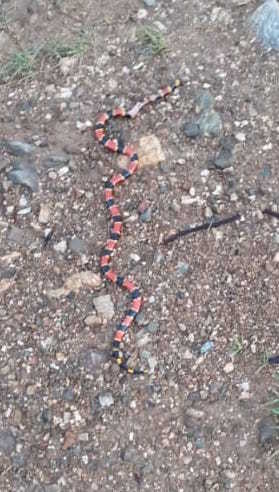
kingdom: Animalia
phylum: Chordata
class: Squamata
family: Elapidae
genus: Micrurus
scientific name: Micrurus ephippifer
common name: Double black coral snake
